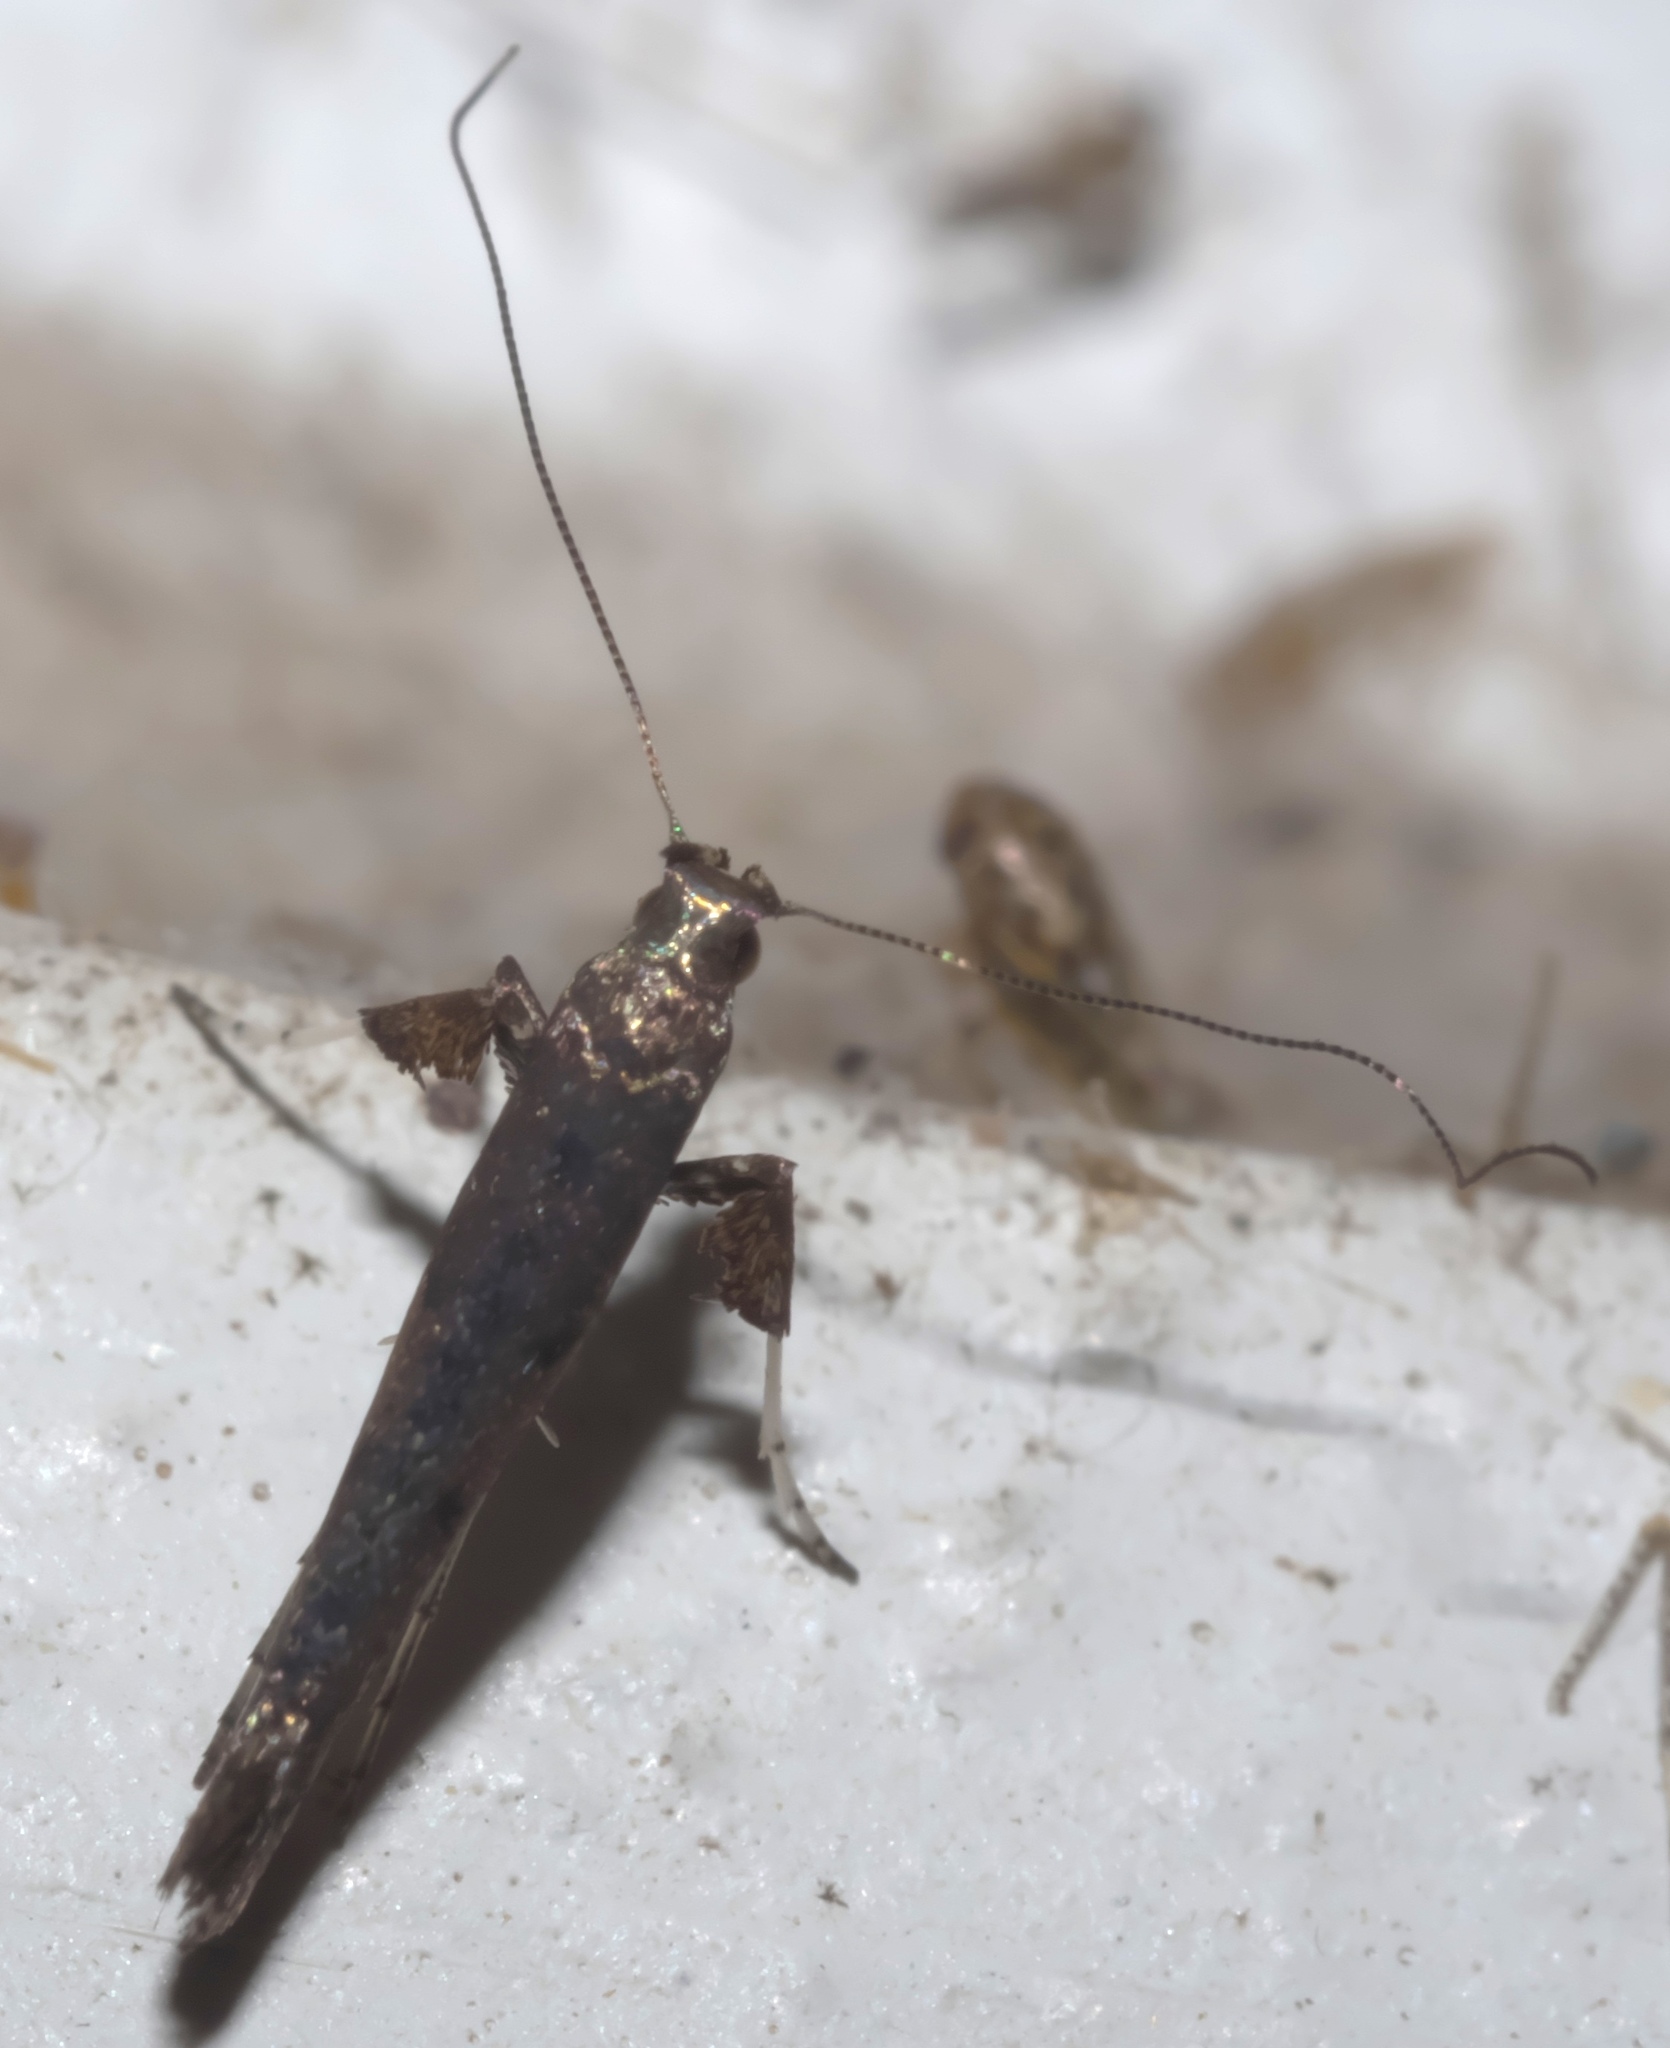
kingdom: Animalia
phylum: Arthropoda
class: Insecta
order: Lepidoptera
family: Gracillariidae
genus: Caloptilia
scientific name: Caloptilia
